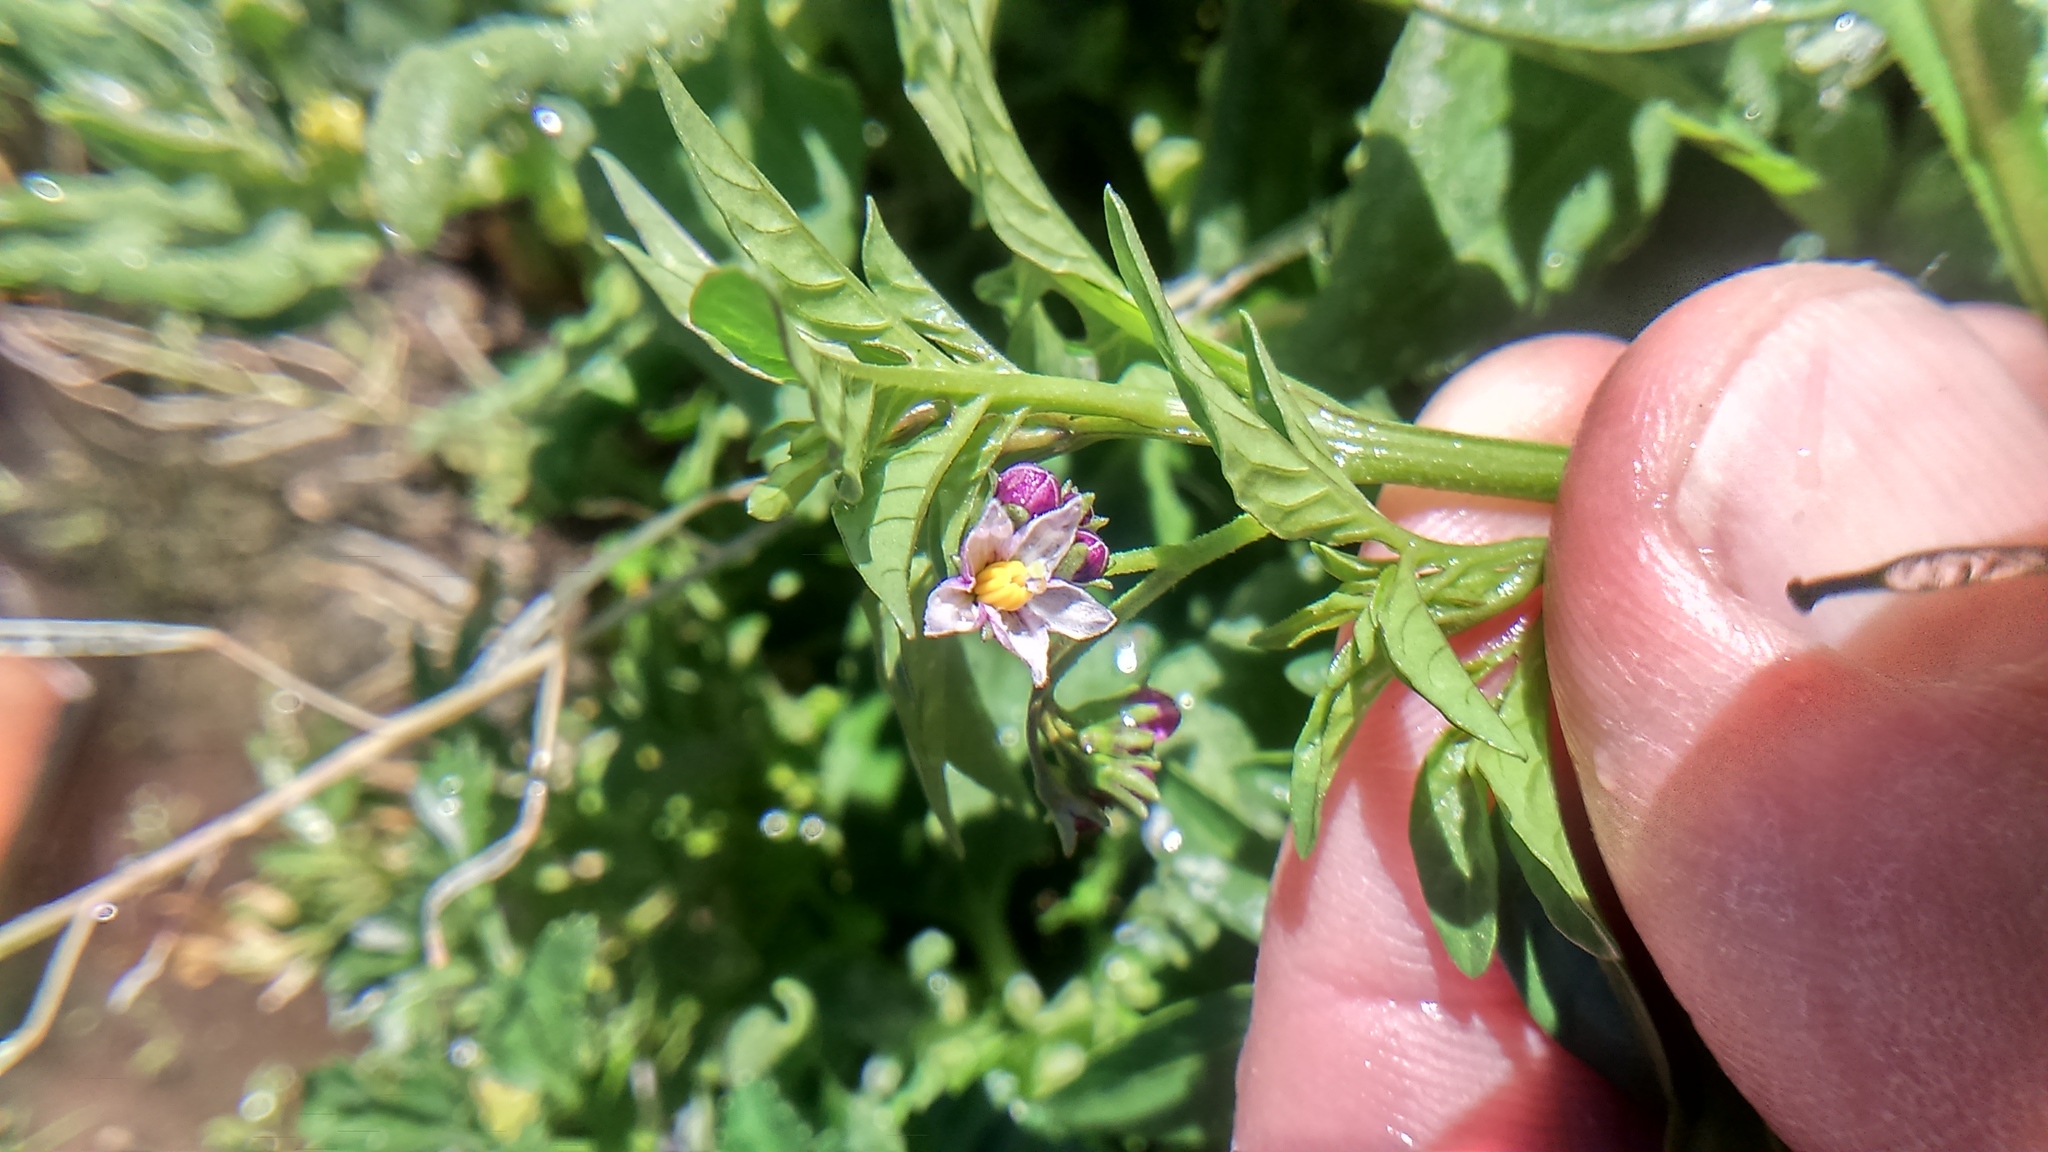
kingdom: Plantae
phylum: Tracheophyta
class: Magnoliopsida
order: Solanales
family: Solanaceae
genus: Solanum
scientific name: Solanum radicans
